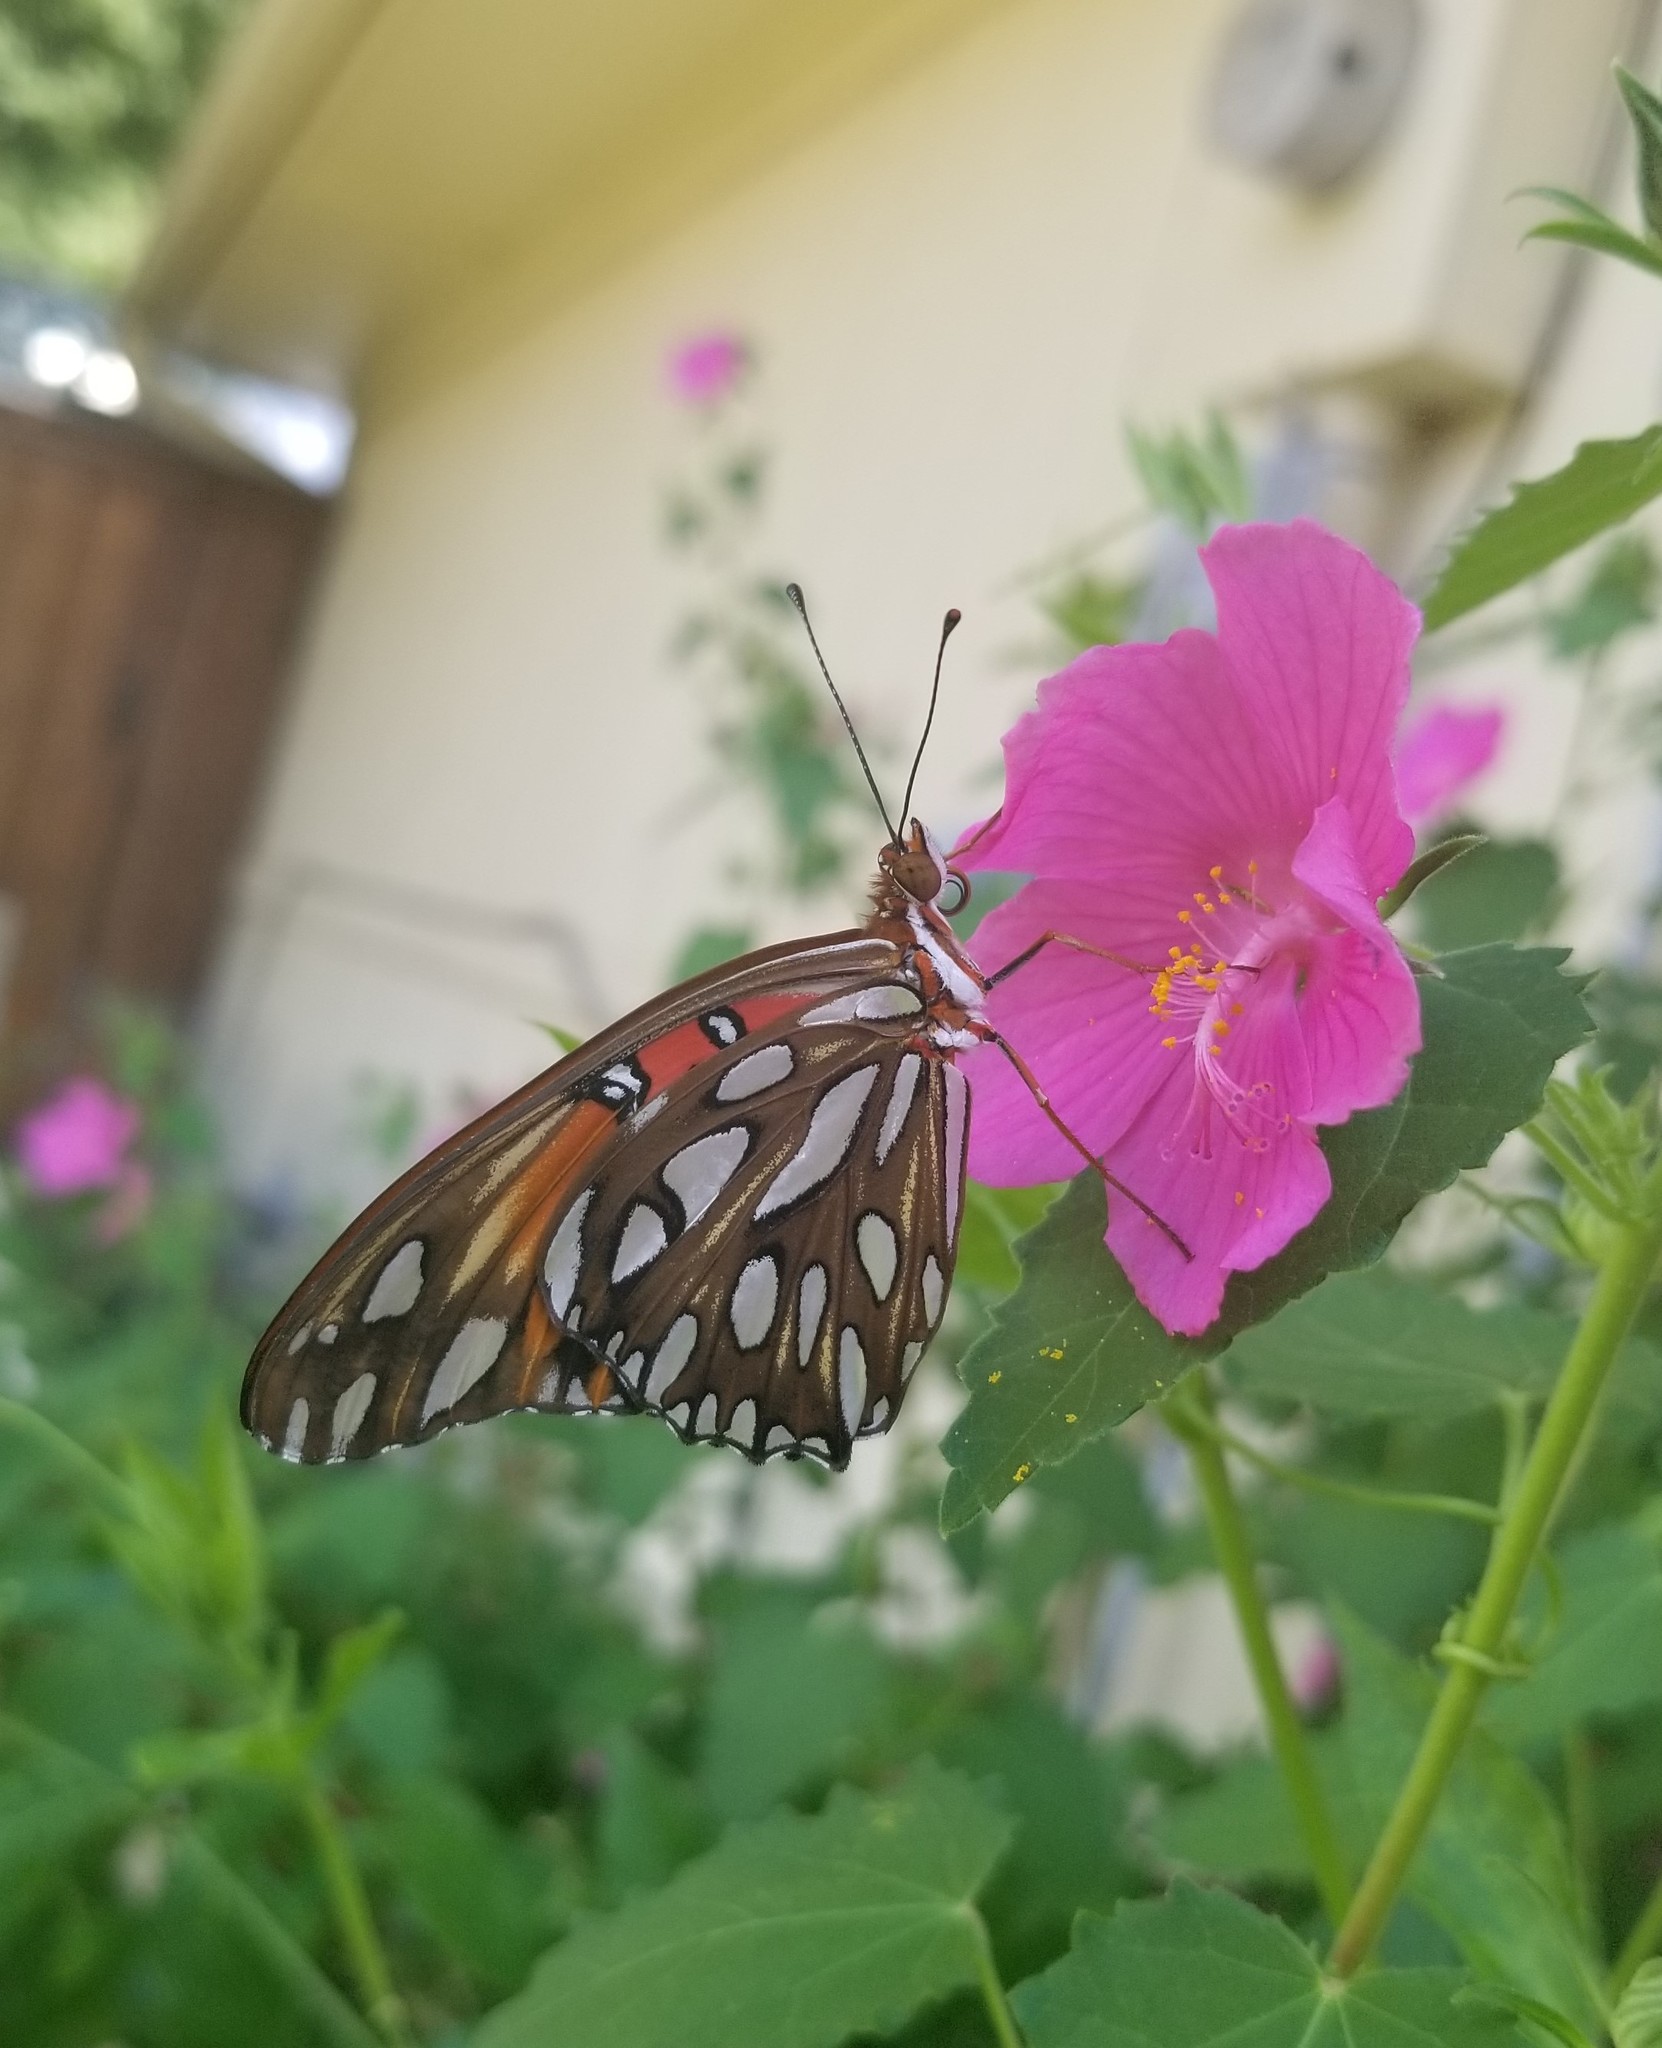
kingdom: Animalia
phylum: Arthropoda
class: Insecta
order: Lepidoptera
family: Nymphalidae
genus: Dione
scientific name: Dione vanillae
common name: Gulf fritillary
